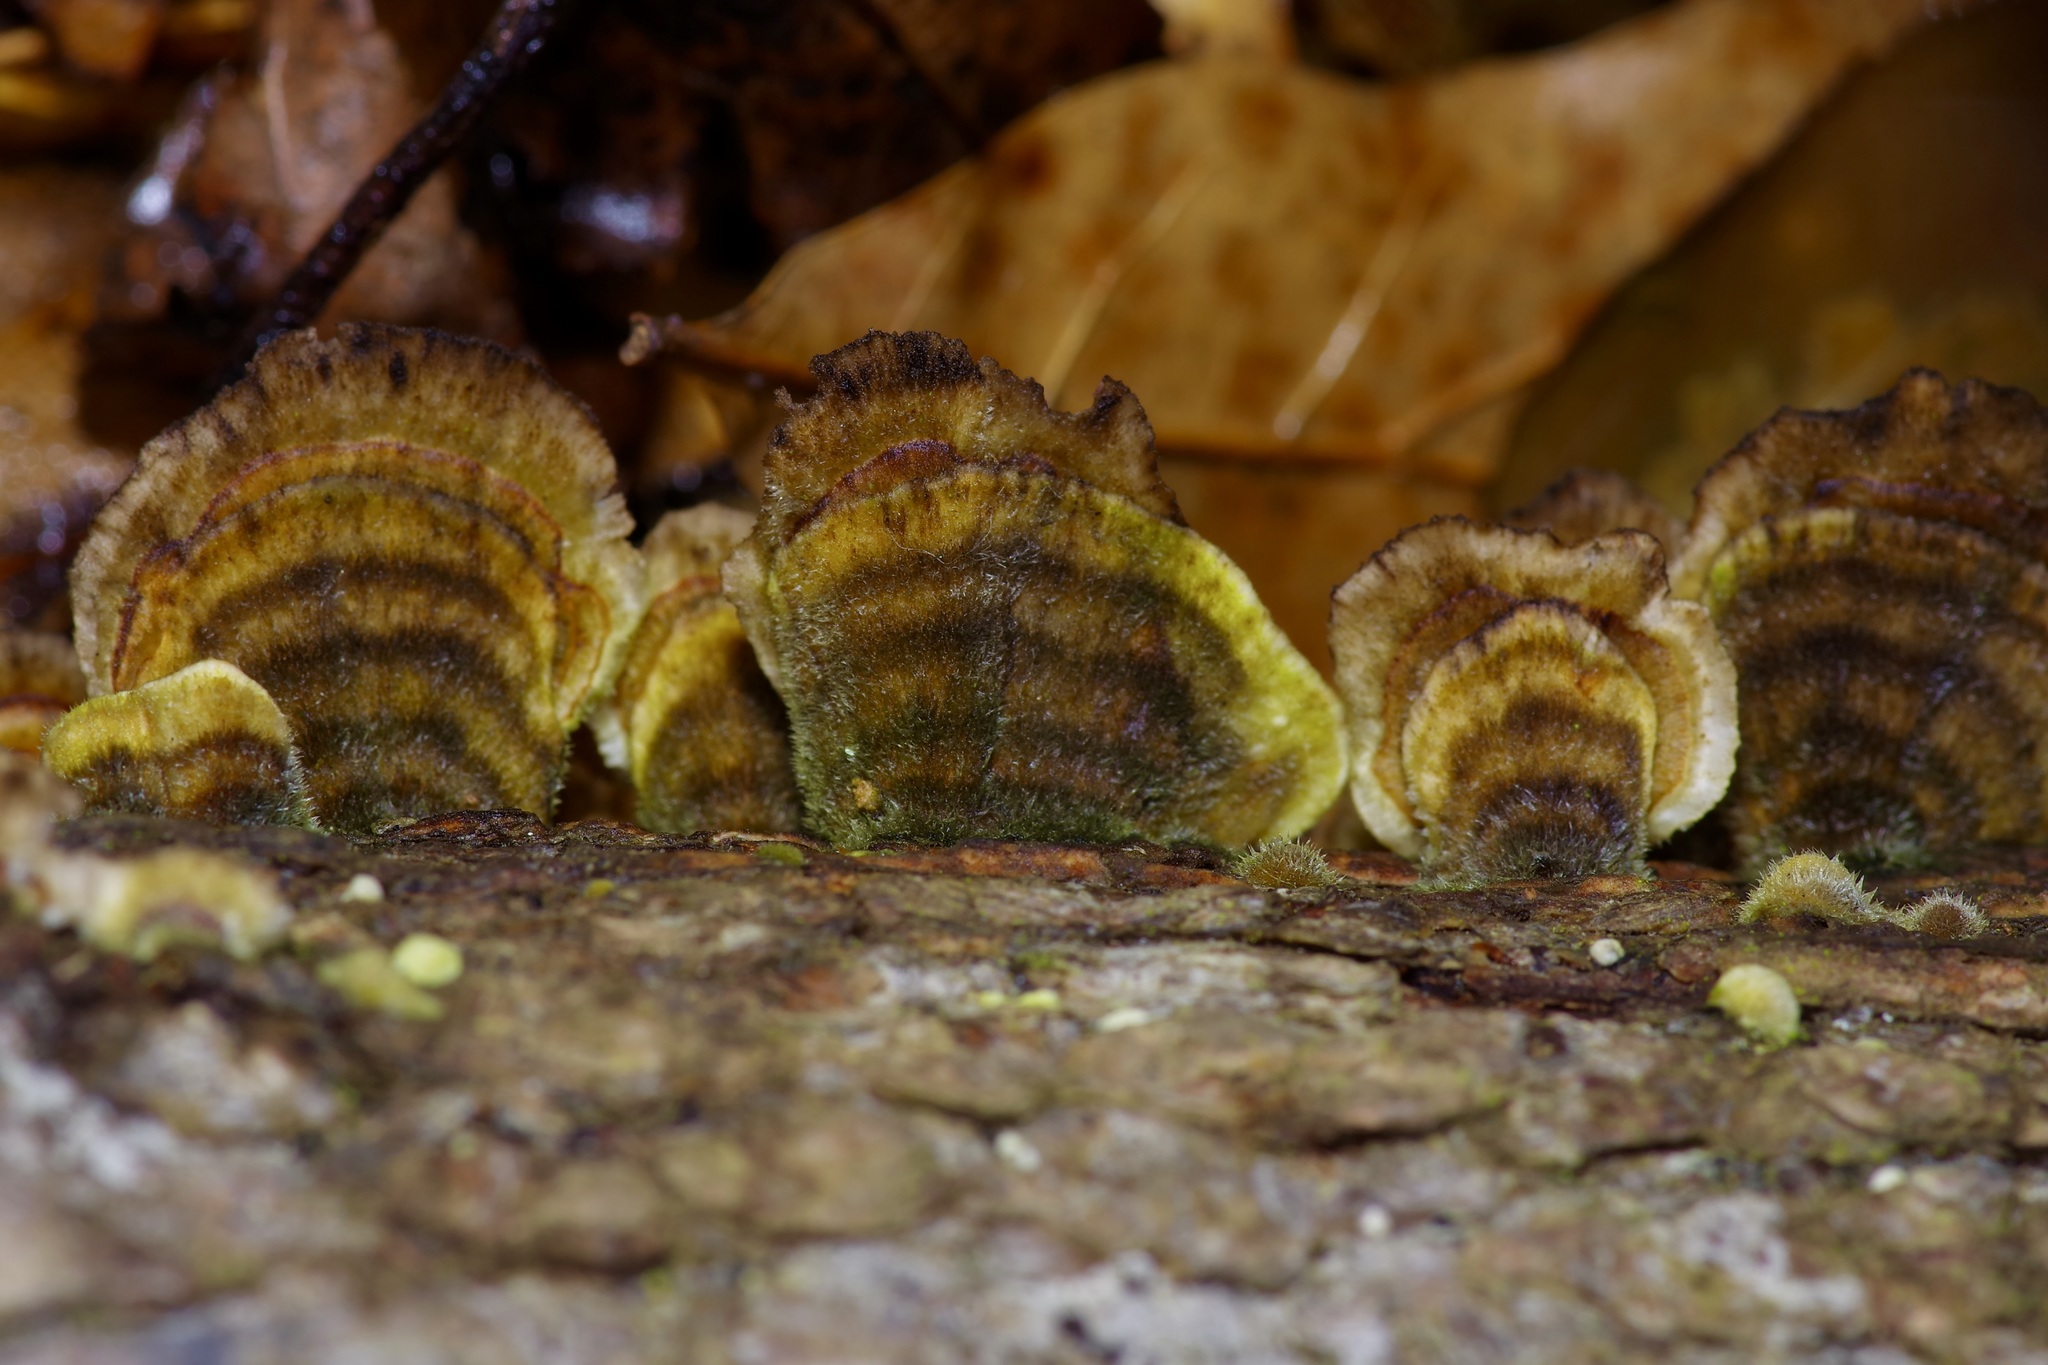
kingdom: Fungi
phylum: Basidiomycota
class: Agaricomycetes
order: Polyporales
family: Polyporaceae
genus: Trametes
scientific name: Trametes hirsuta
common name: Hairy bracket
